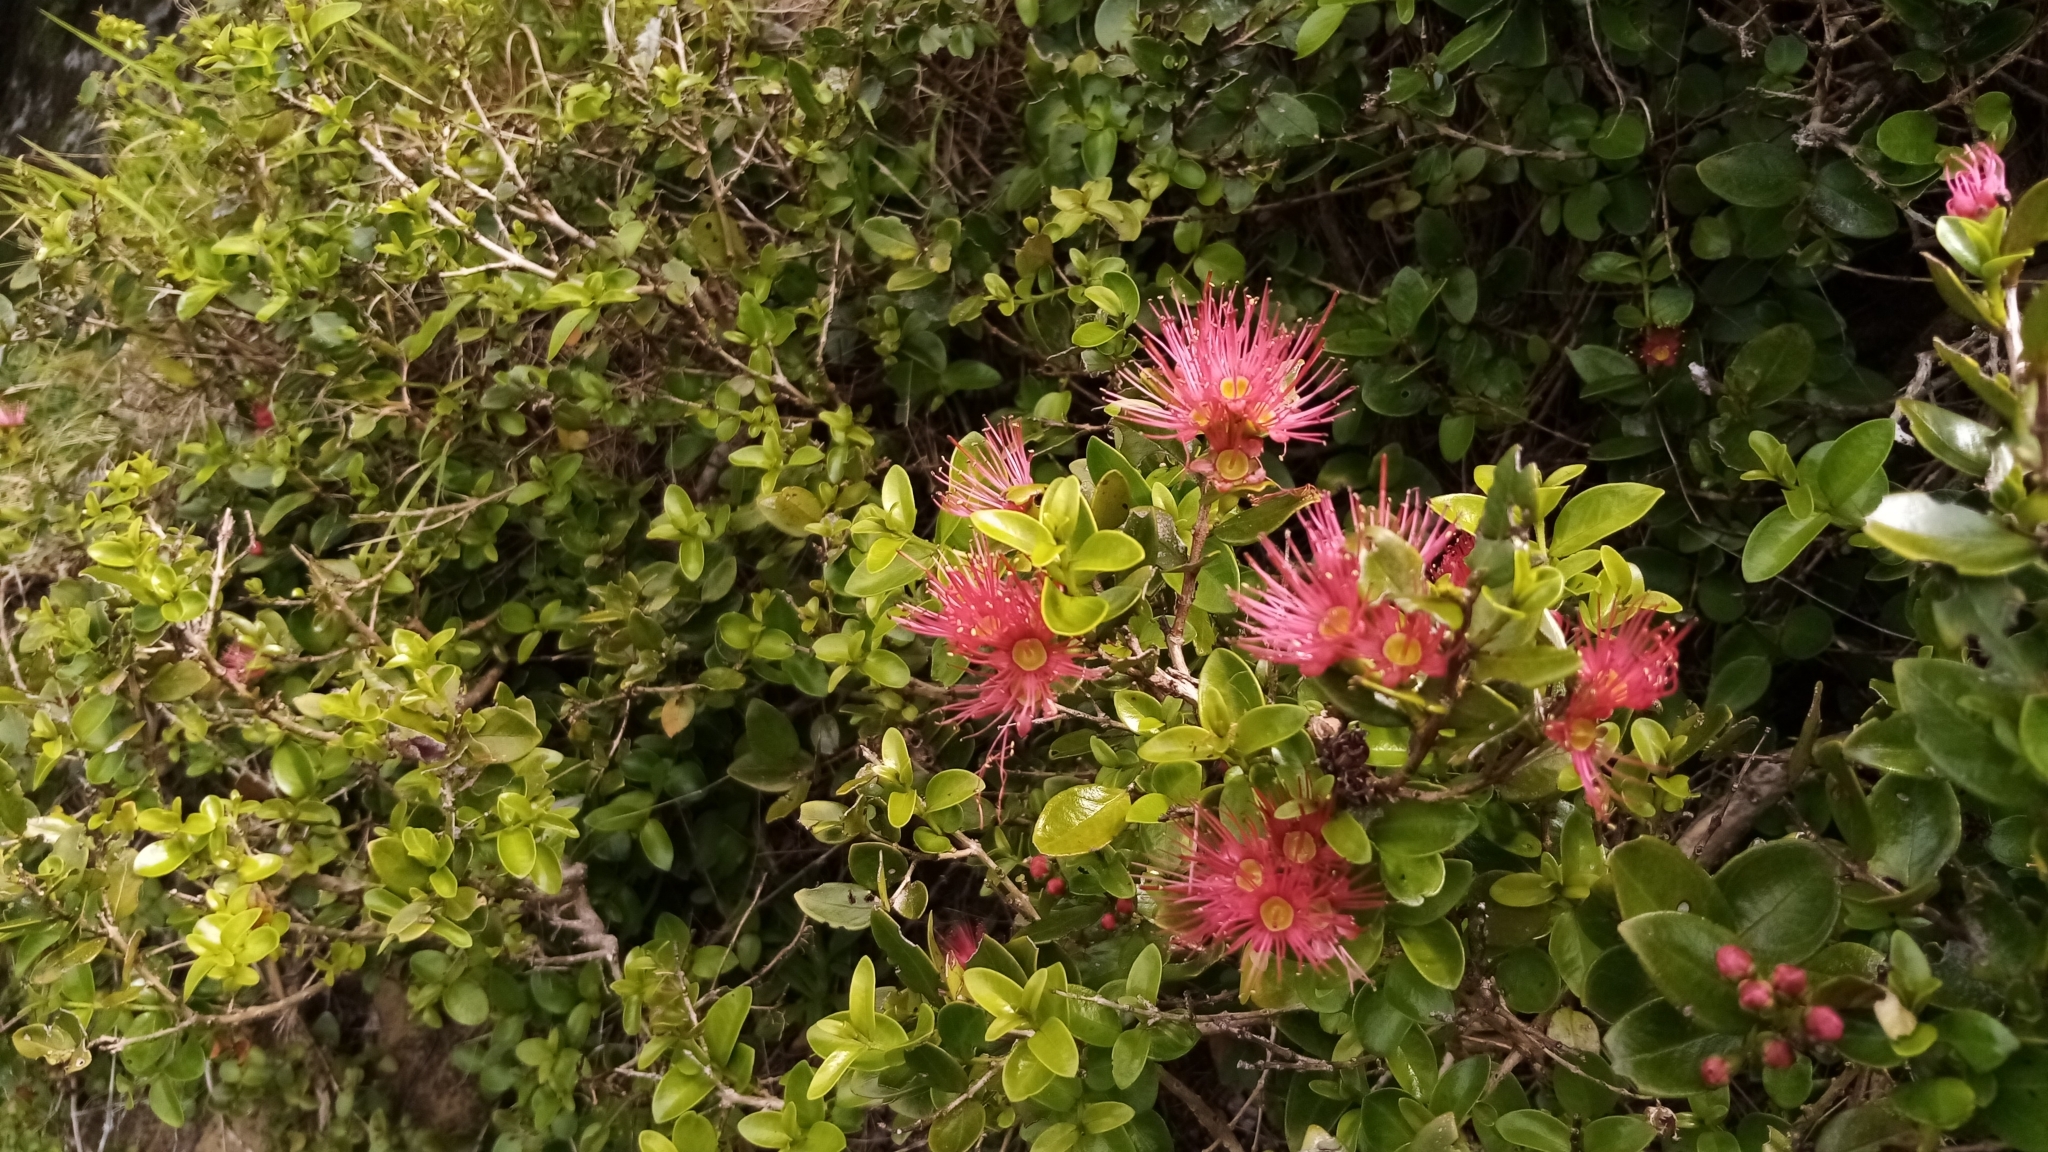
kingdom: Plantae
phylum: Tracheophyta
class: Magnoliopsida
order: Myrtales
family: Myrtaceae
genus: Metrosideros
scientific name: Metrosideros carminea
